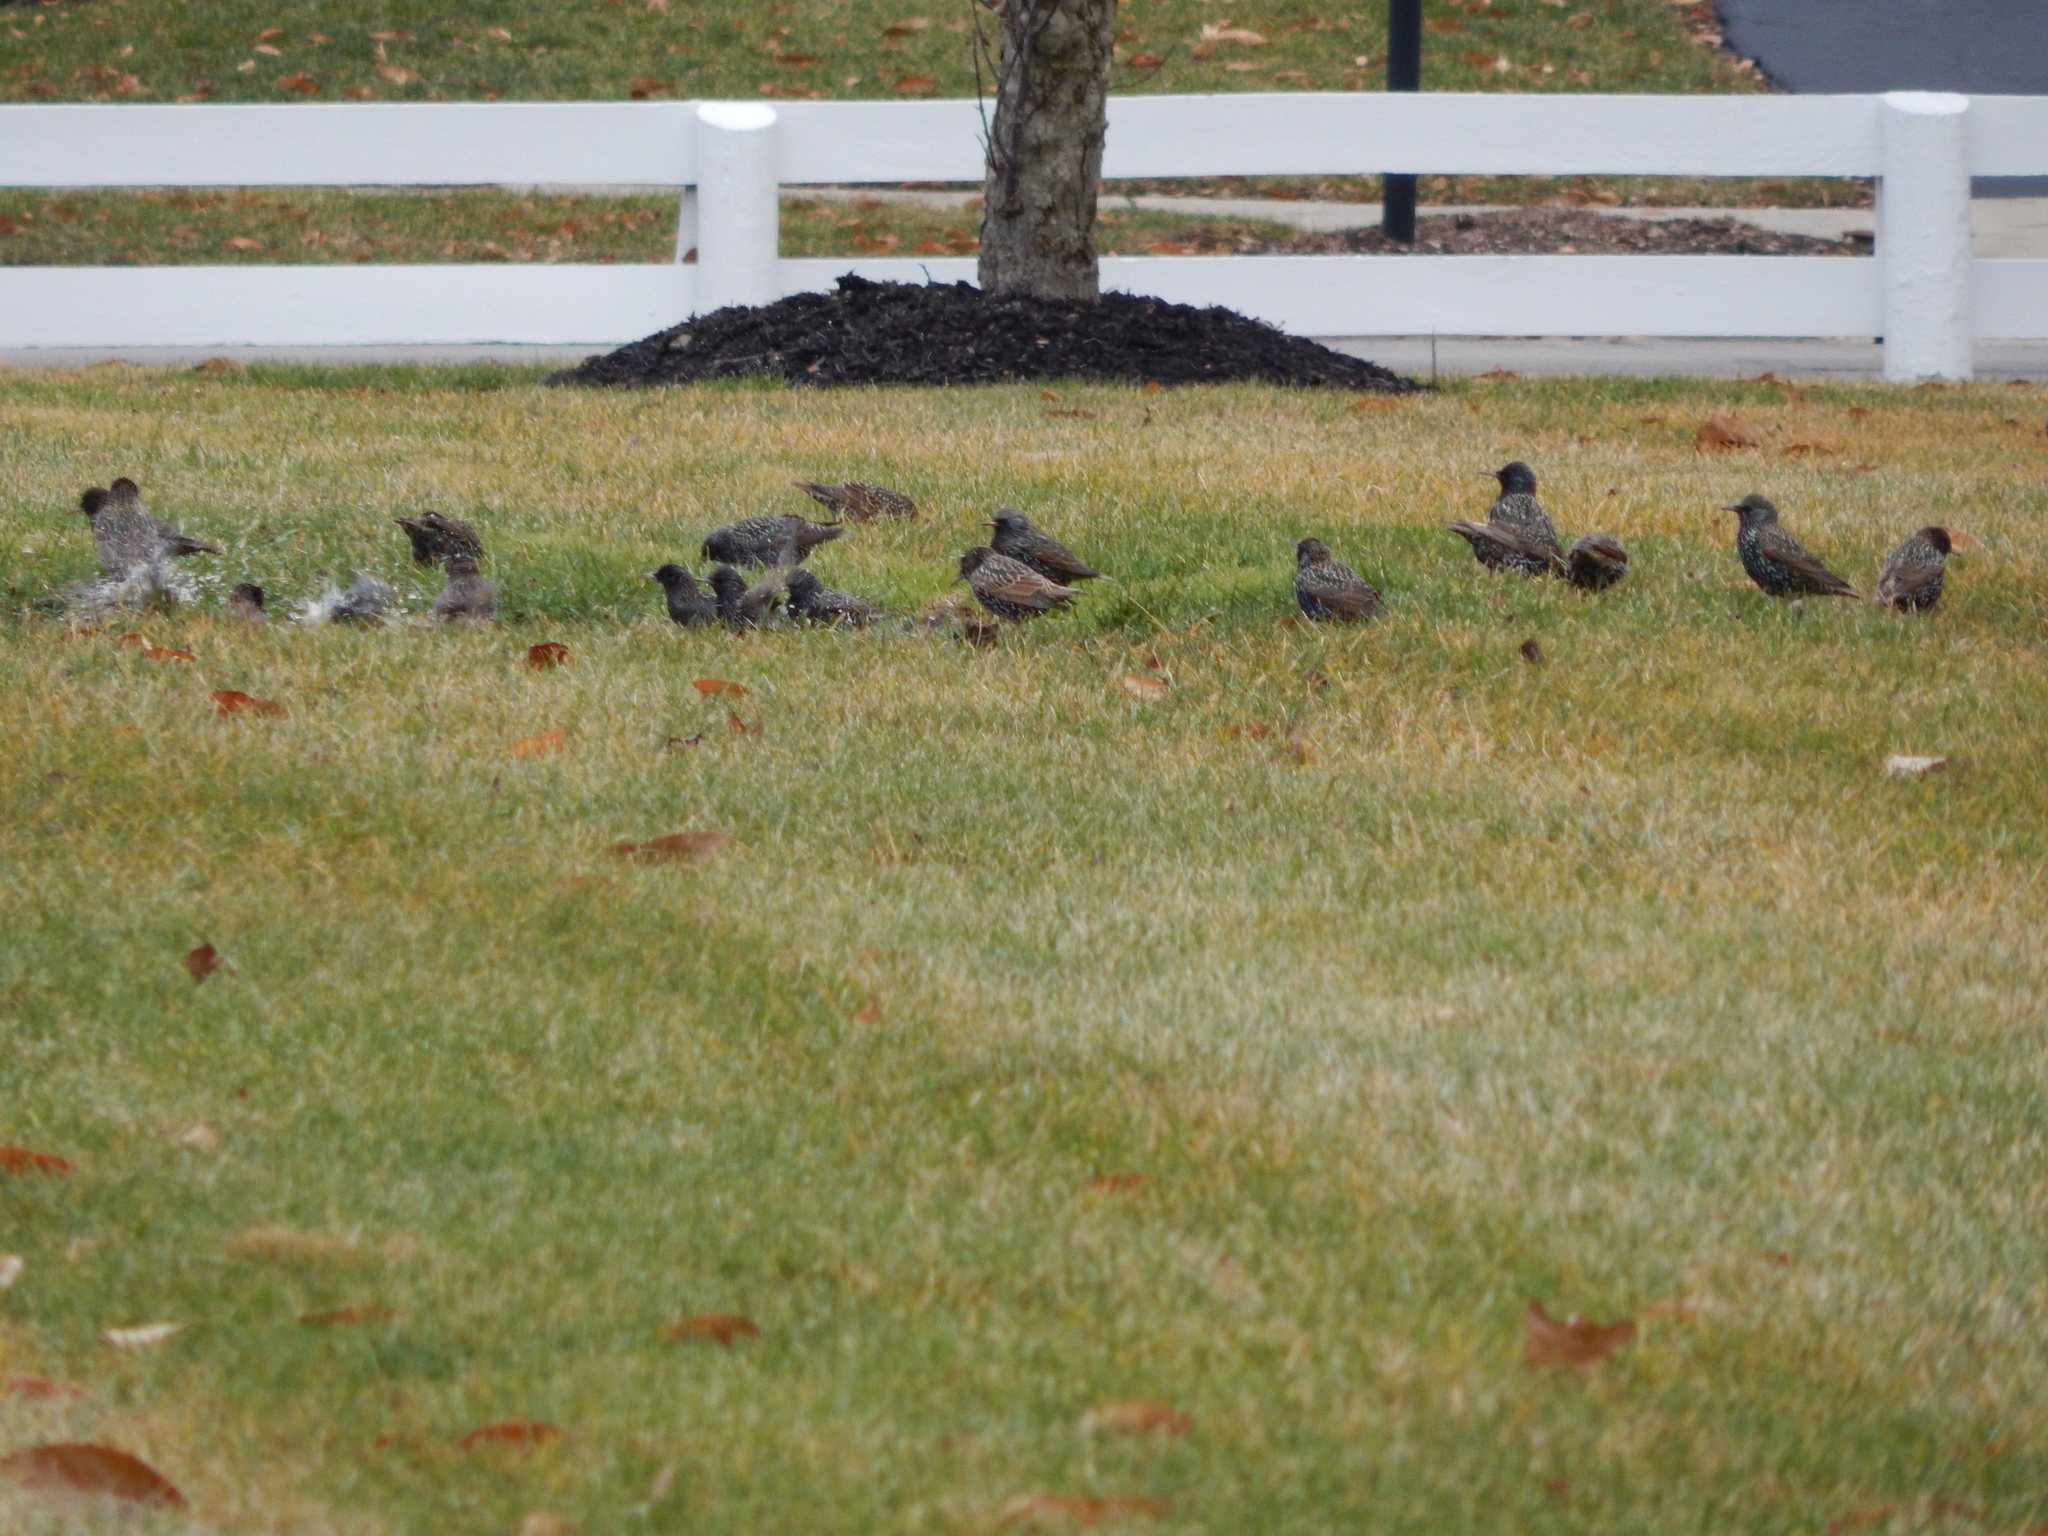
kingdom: Animalia
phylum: Chordata
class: Aves
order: Passeriformes
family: Sturnidae
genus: Sturnus
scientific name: Sturnus vulgaris
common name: Common starling
